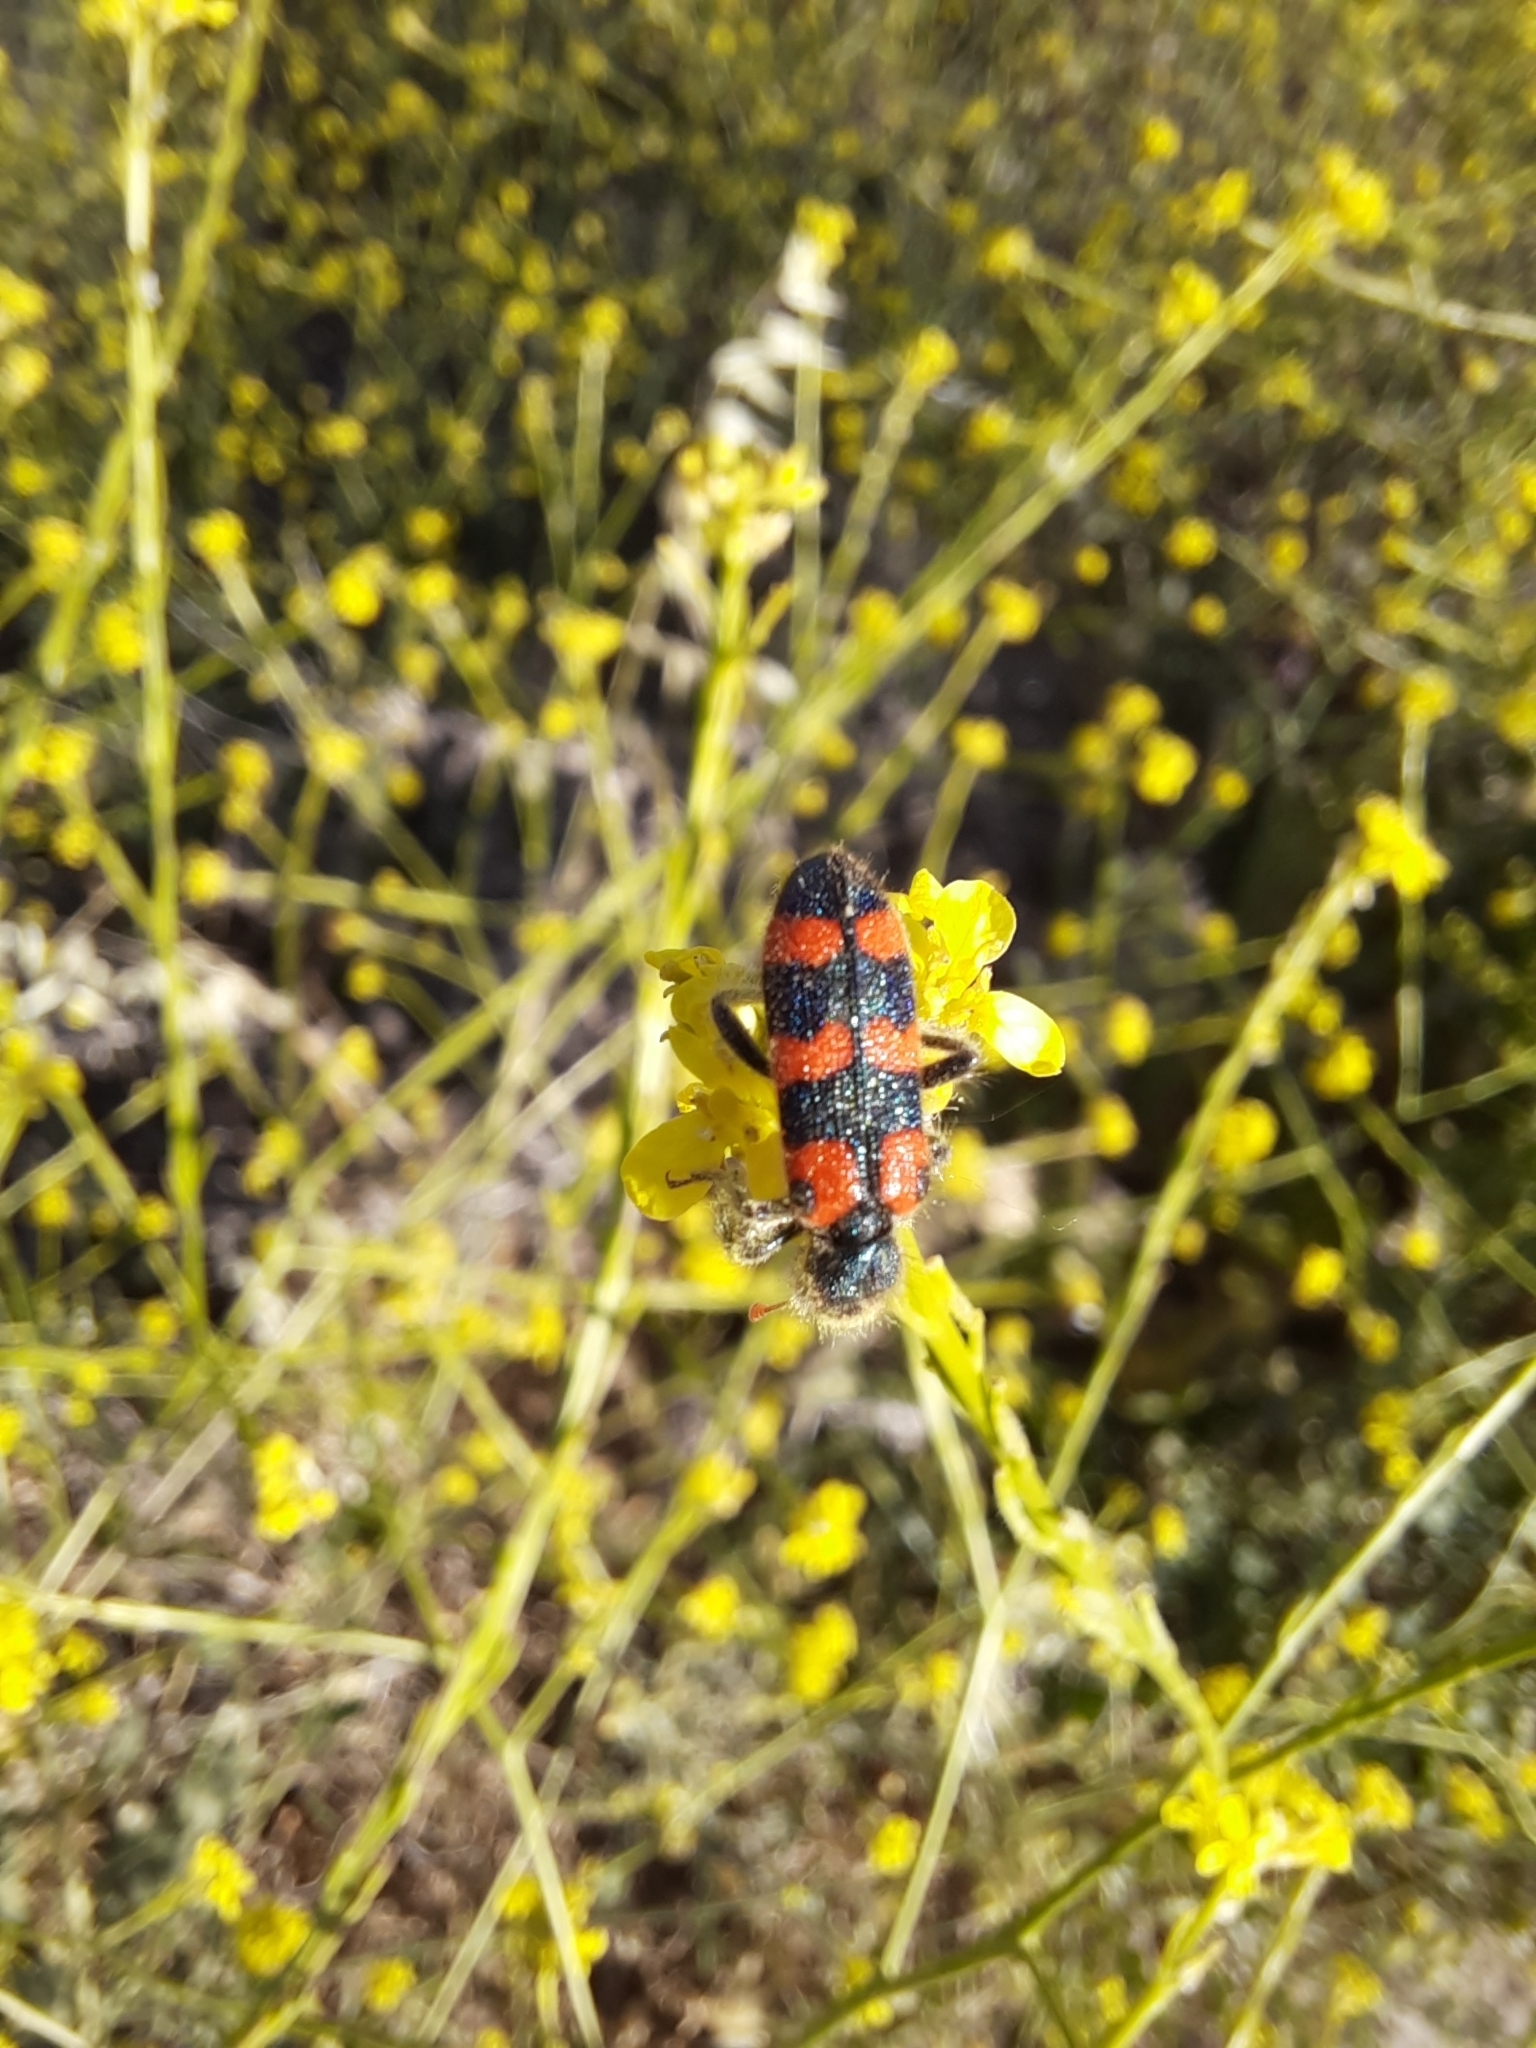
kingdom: Animalia
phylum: Arthropoda
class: Insecta
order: Coleoptera
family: Cleridae
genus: Trichodes
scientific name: Trichodes leucopsideus
